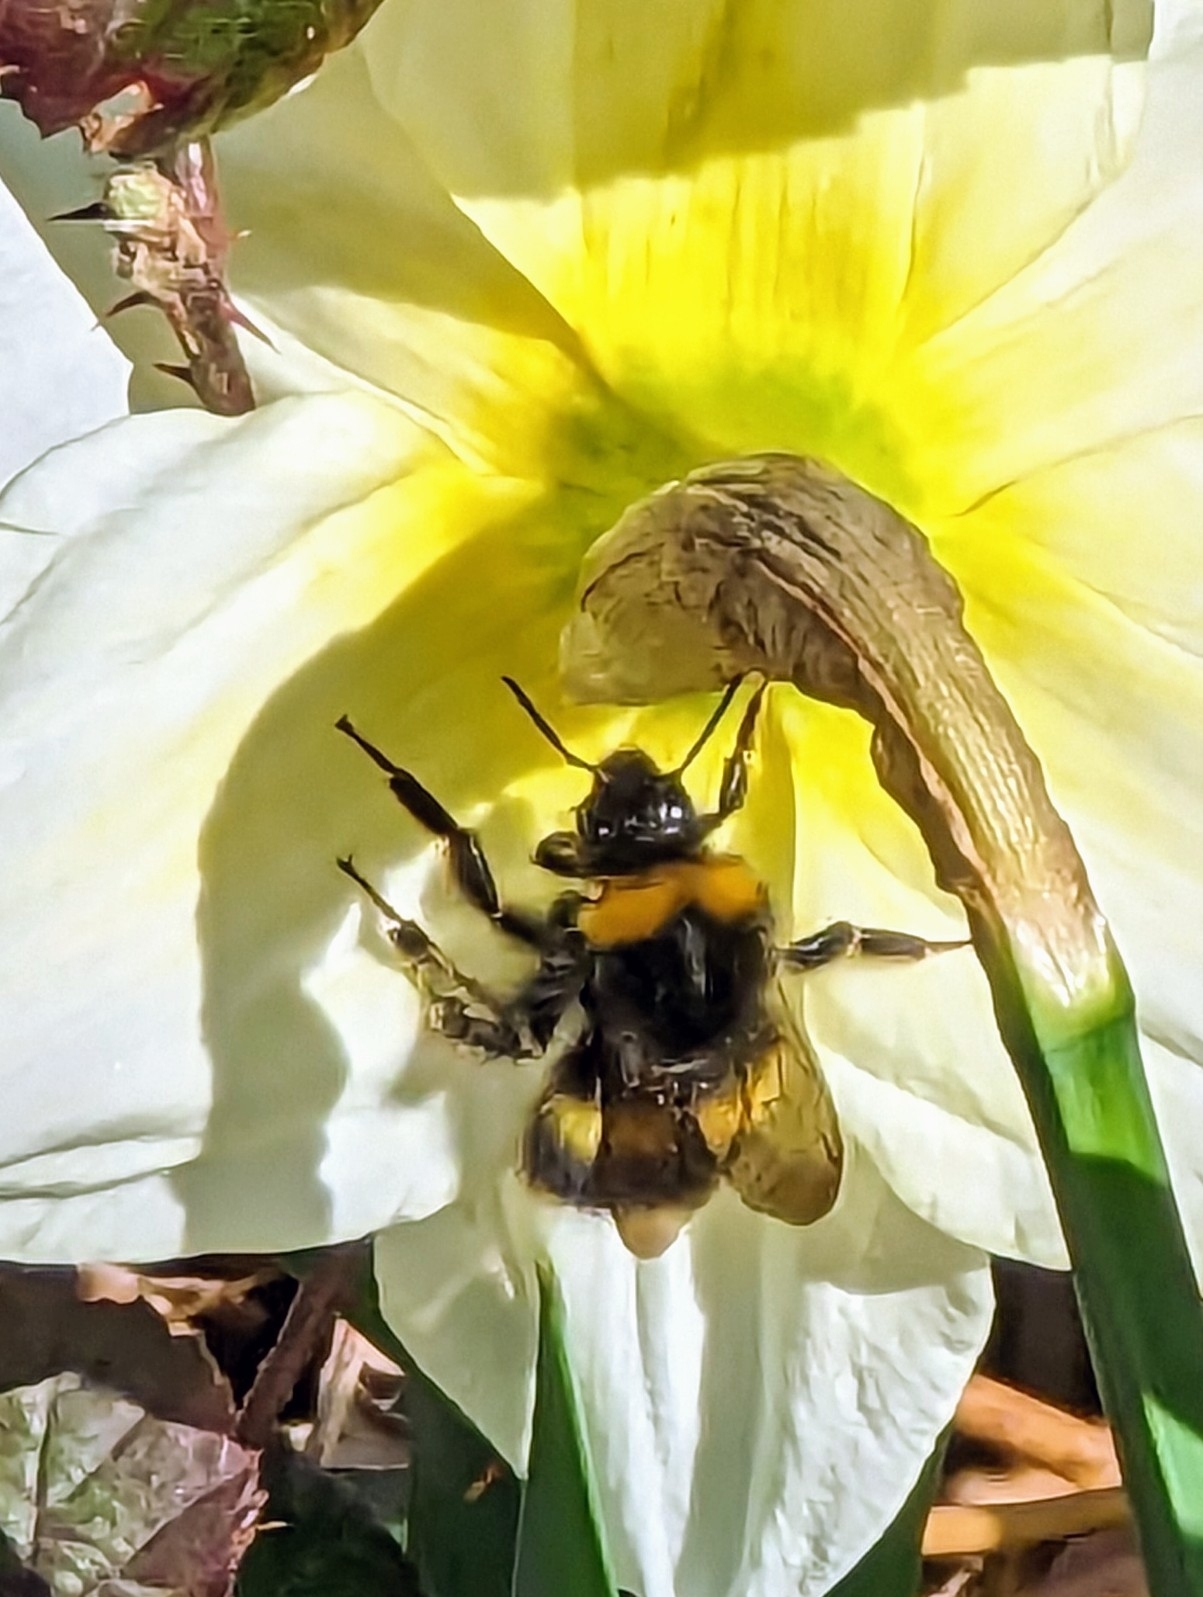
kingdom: Animalia
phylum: Arthropoda
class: Insecta
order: Hymenoptera
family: Apidae
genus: Bombus
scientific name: Bombus pratorum
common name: Early humble-bee
